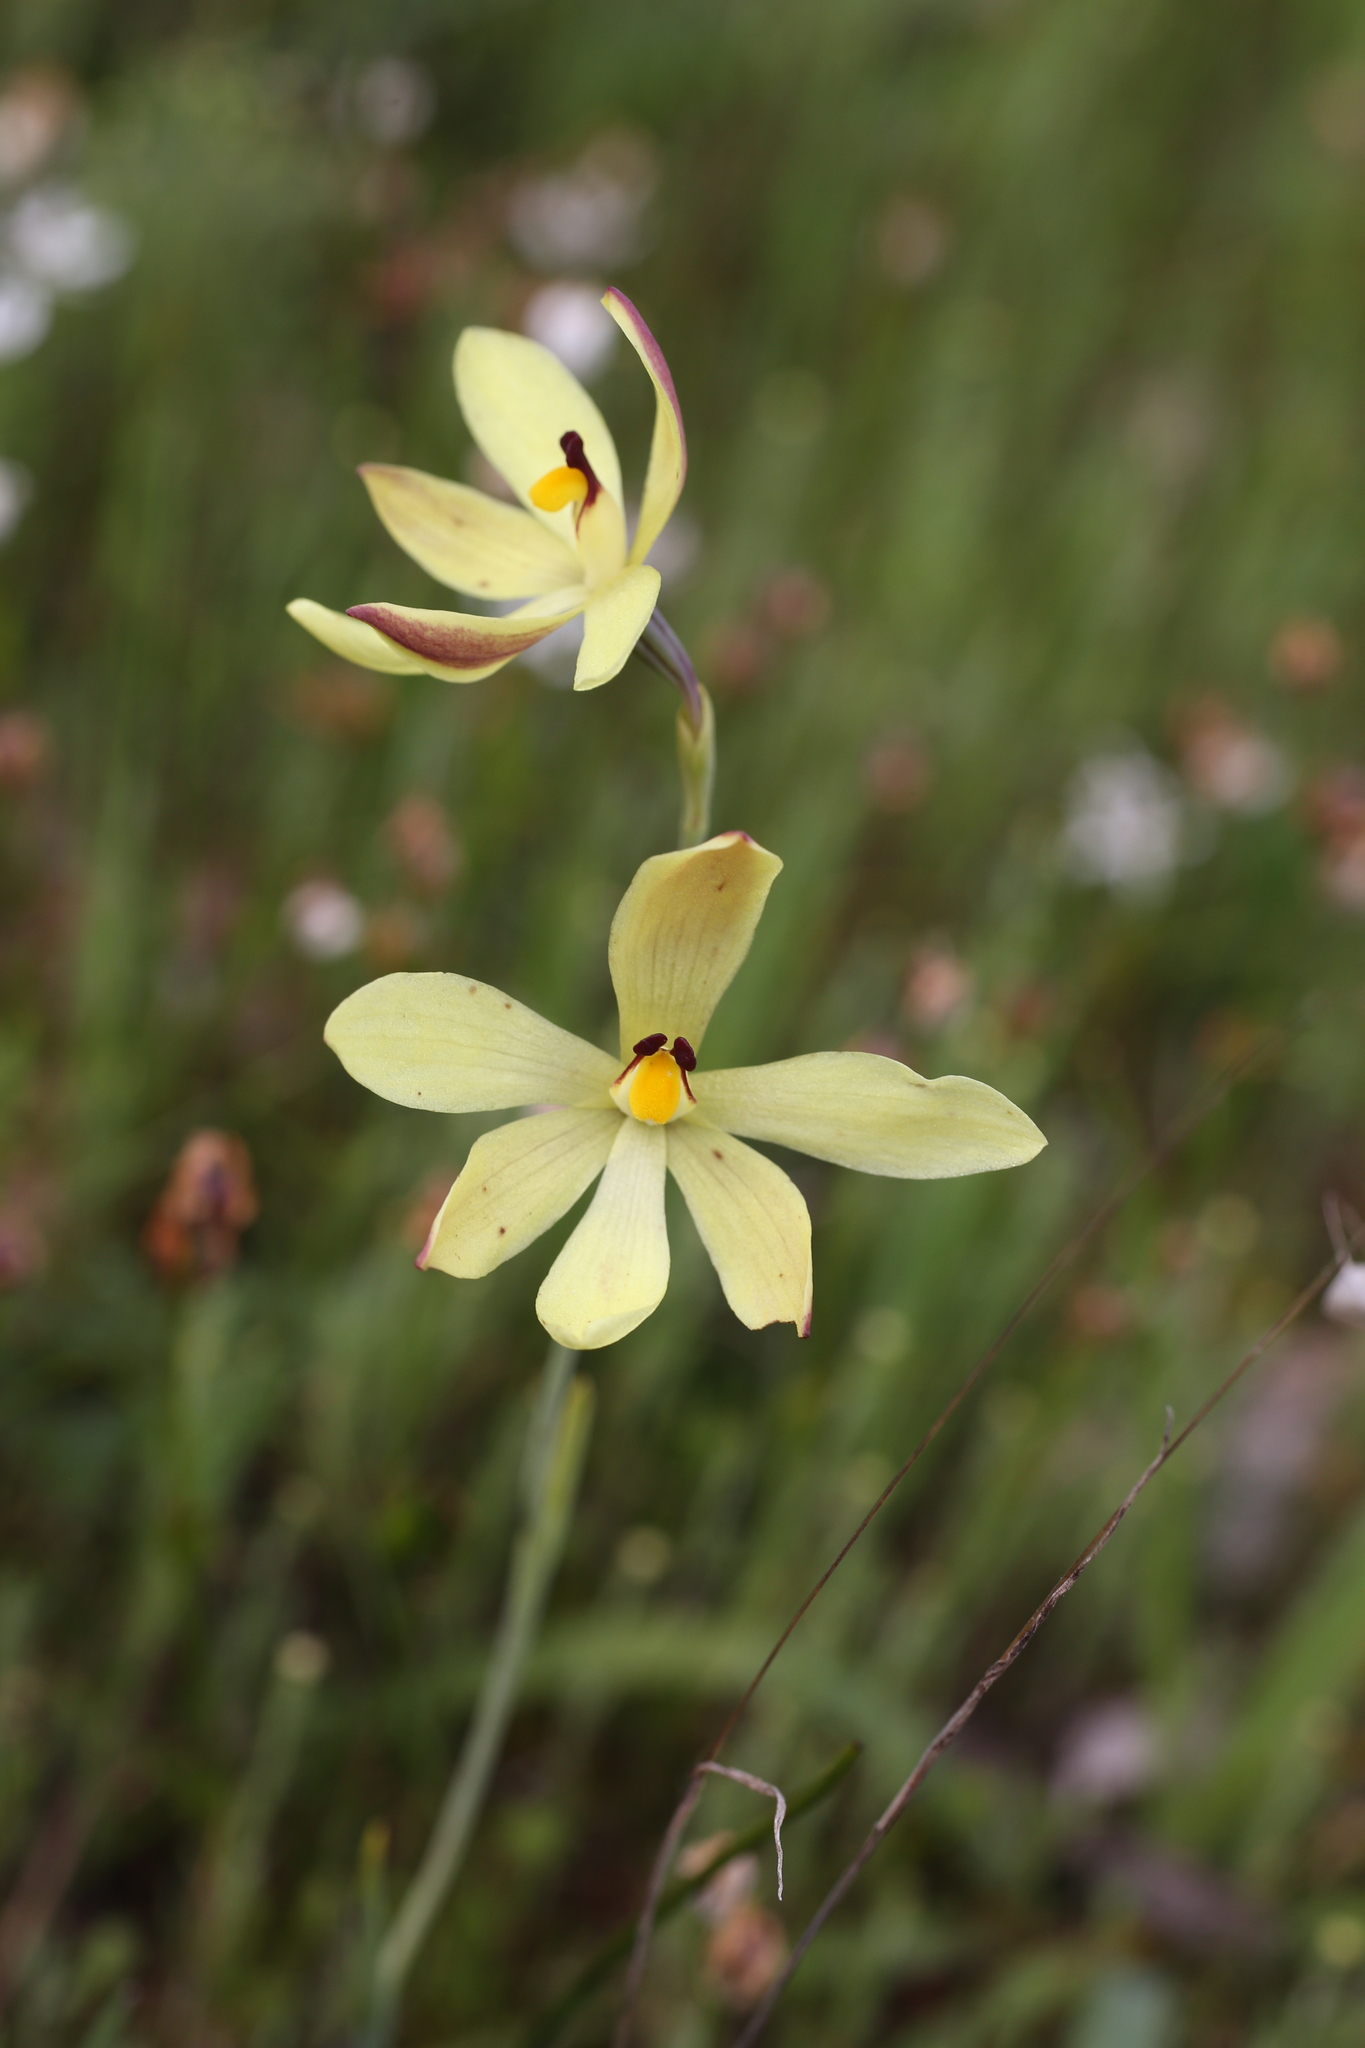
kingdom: Plantae
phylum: Tracheophyta
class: Liliopsida
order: Asparagales
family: Orchidaceae
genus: Thelymitra
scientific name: Thelymitra antennifera
